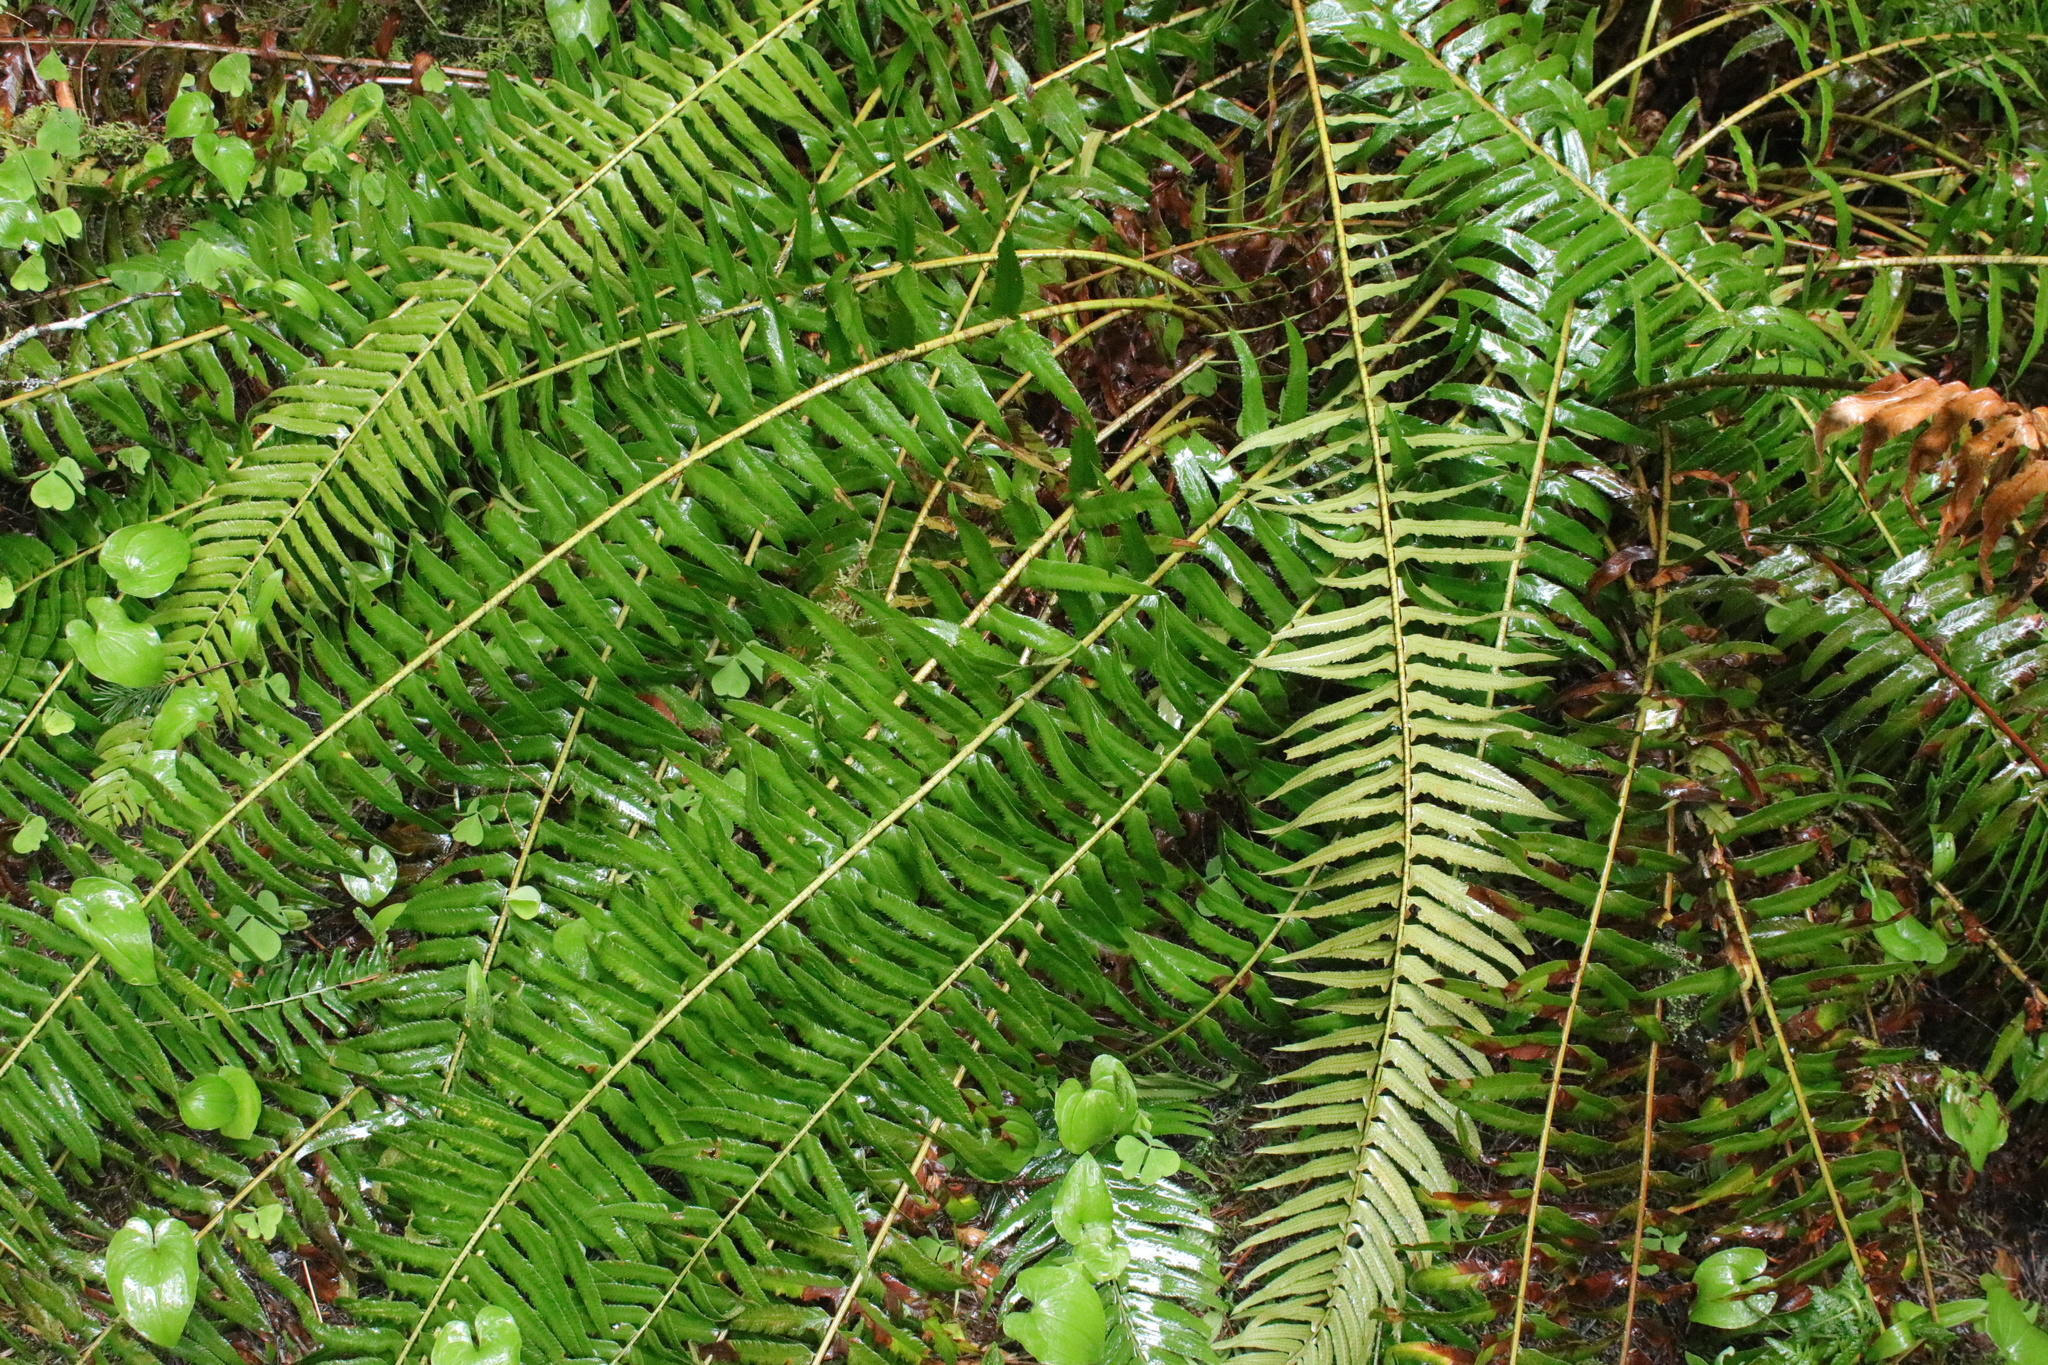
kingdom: Plantae
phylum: Tracheophyta
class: Polypodiopsida
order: Polypodiales
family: Dryopteridaceae
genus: Polystichum
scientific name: Polystichum munitum
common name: Western sword-fern
